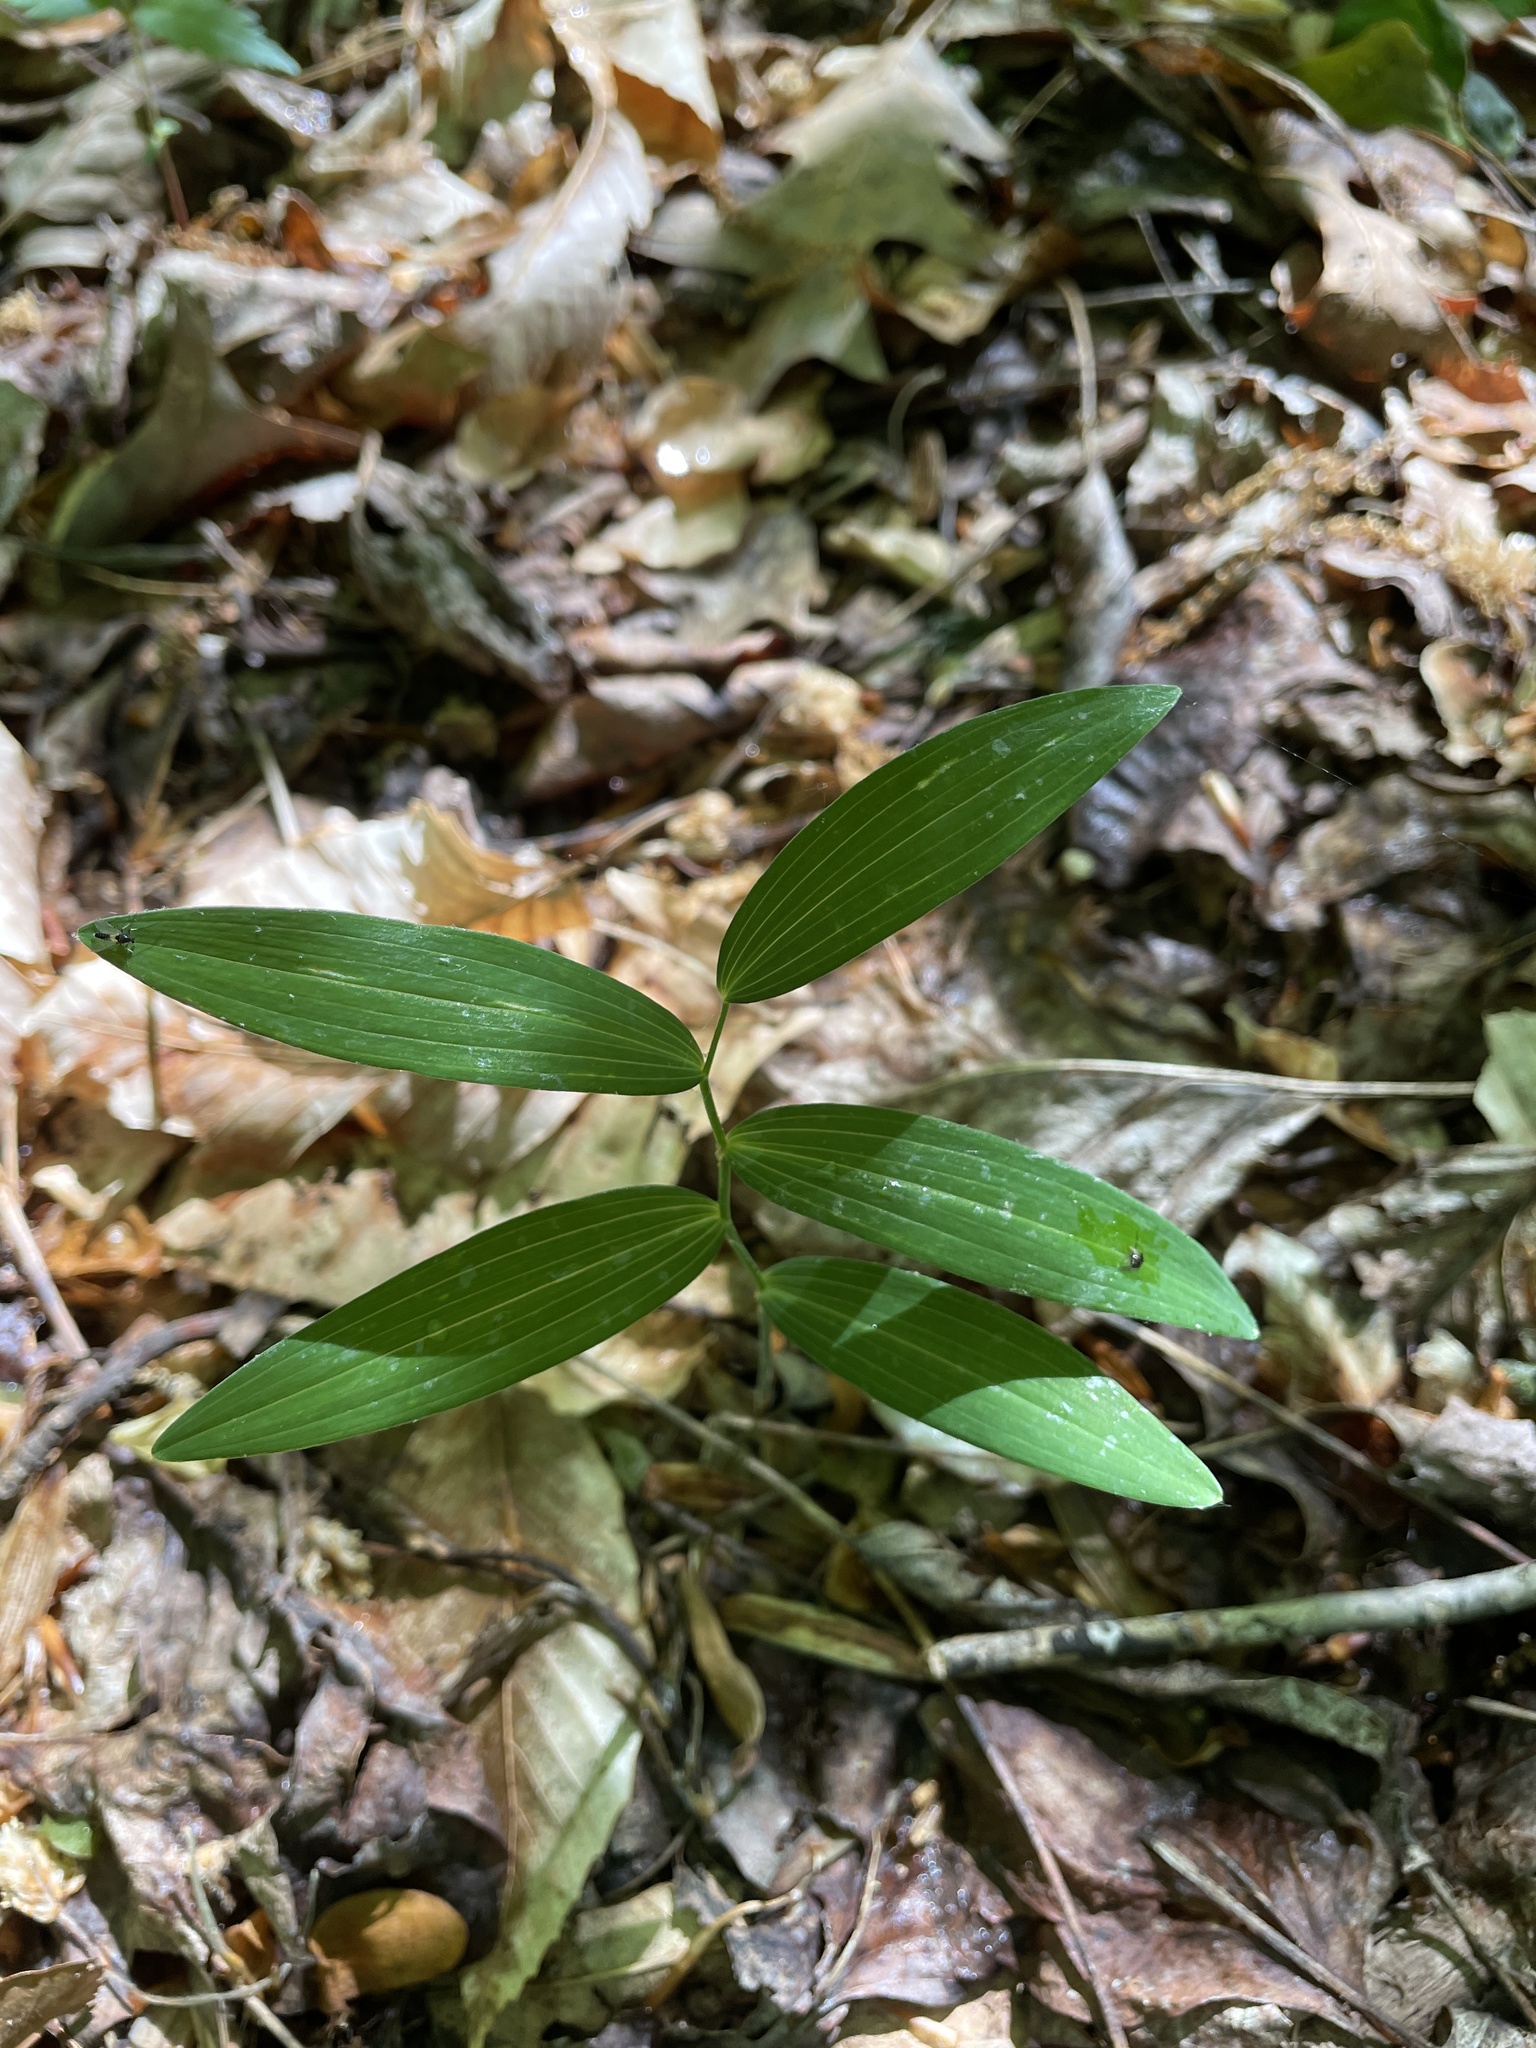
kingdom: Plantae
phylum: Tracheophyta
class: Liliopsida
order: Asparagales
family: Asparagaceae
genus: Polygonatum
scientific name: Polygonatum biflorum
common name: American solomon's-seal
